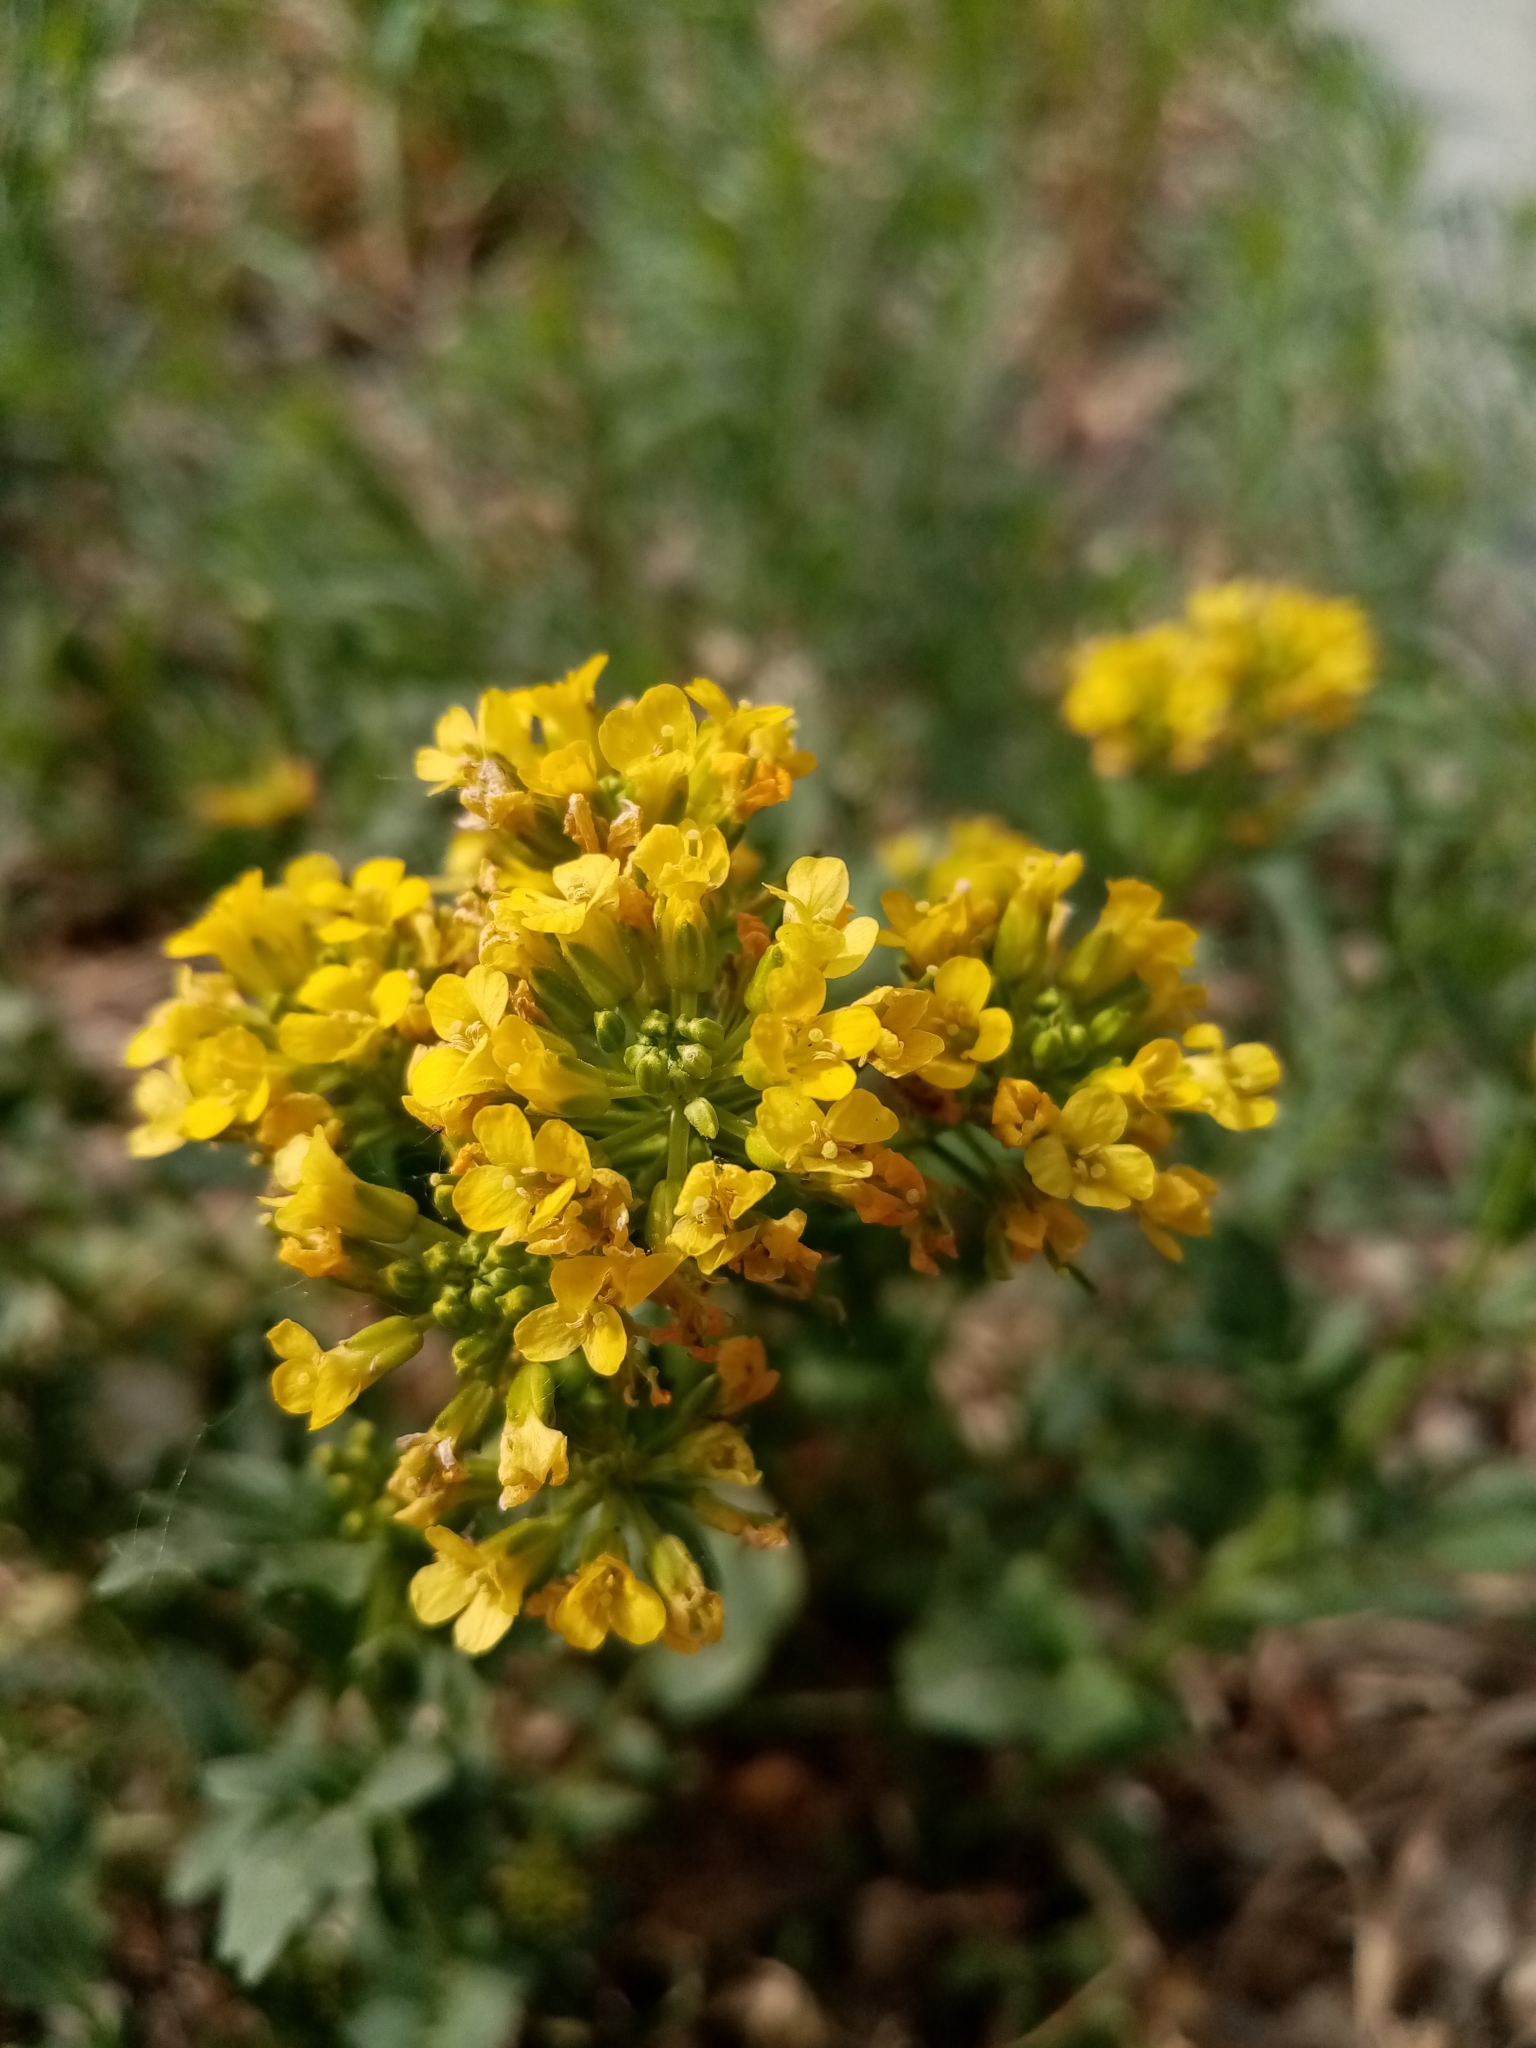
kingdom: Plantae
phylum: Tracheophyta
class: Magnoliopsida
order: Brassicales
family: Brassicaceae
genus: Barbarea
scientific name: Barbarea vulgaris
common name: Cressy-greens
